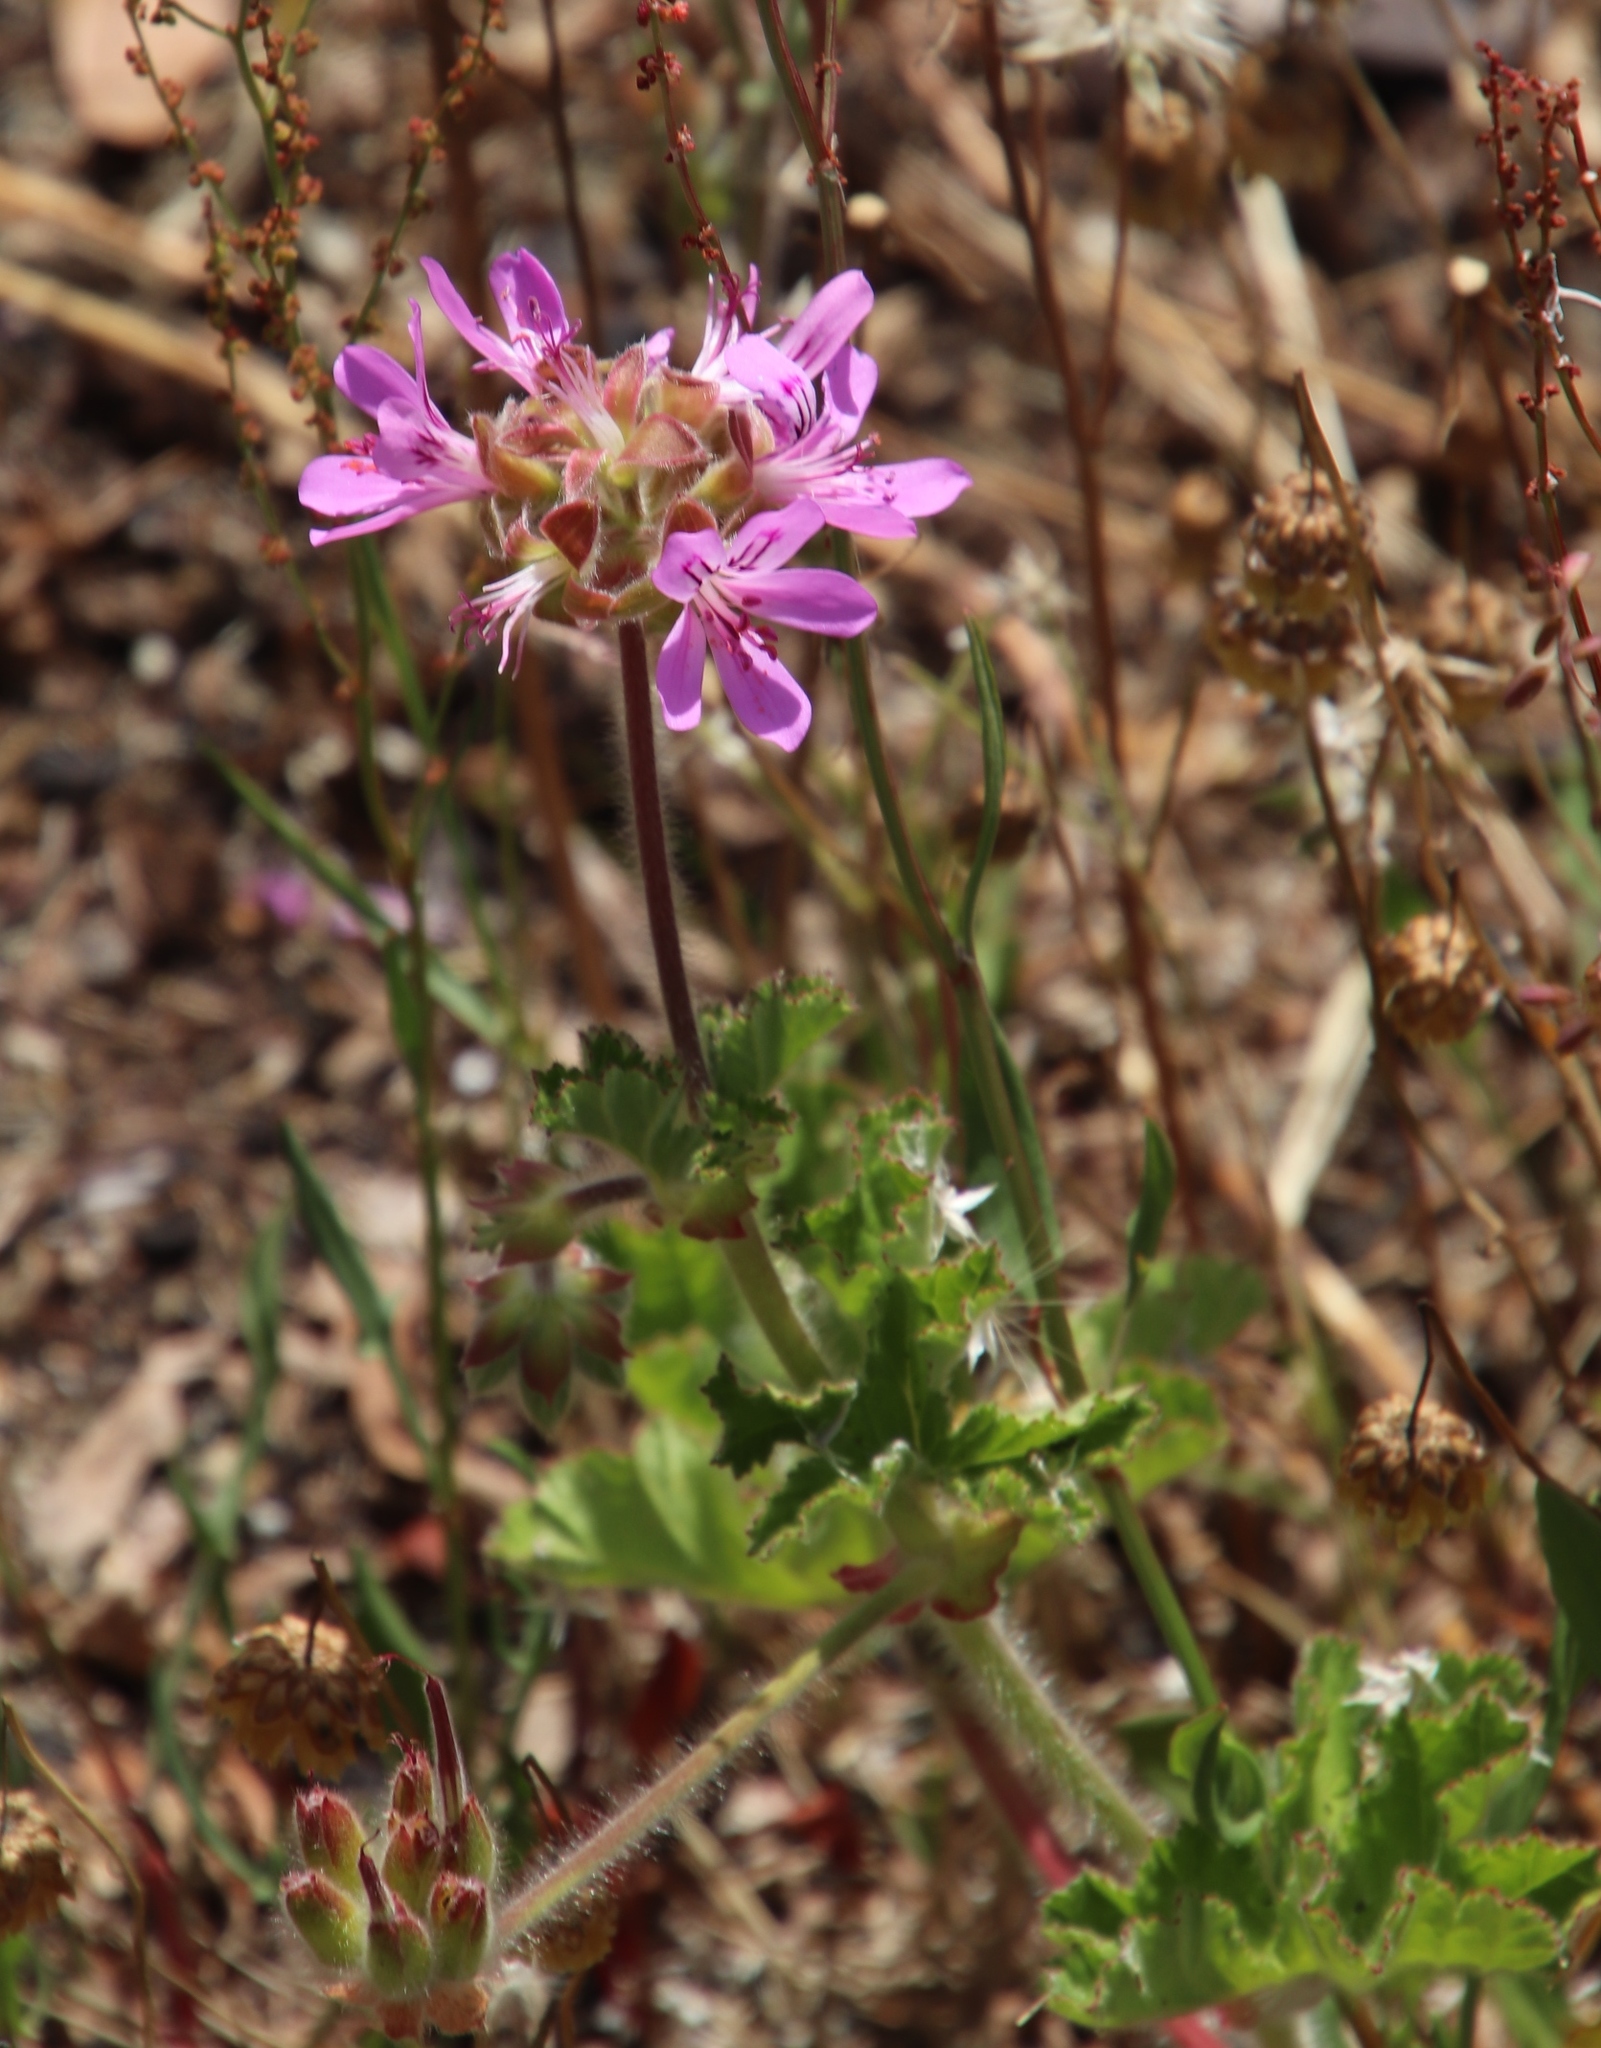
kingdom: Plantae
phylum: Tracheophyta
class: Magnoliopsida
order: Geraniales
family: Geraniaceae
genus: Pelargonium
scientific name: Pelargonium capitatum
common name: Rose scented geranium
